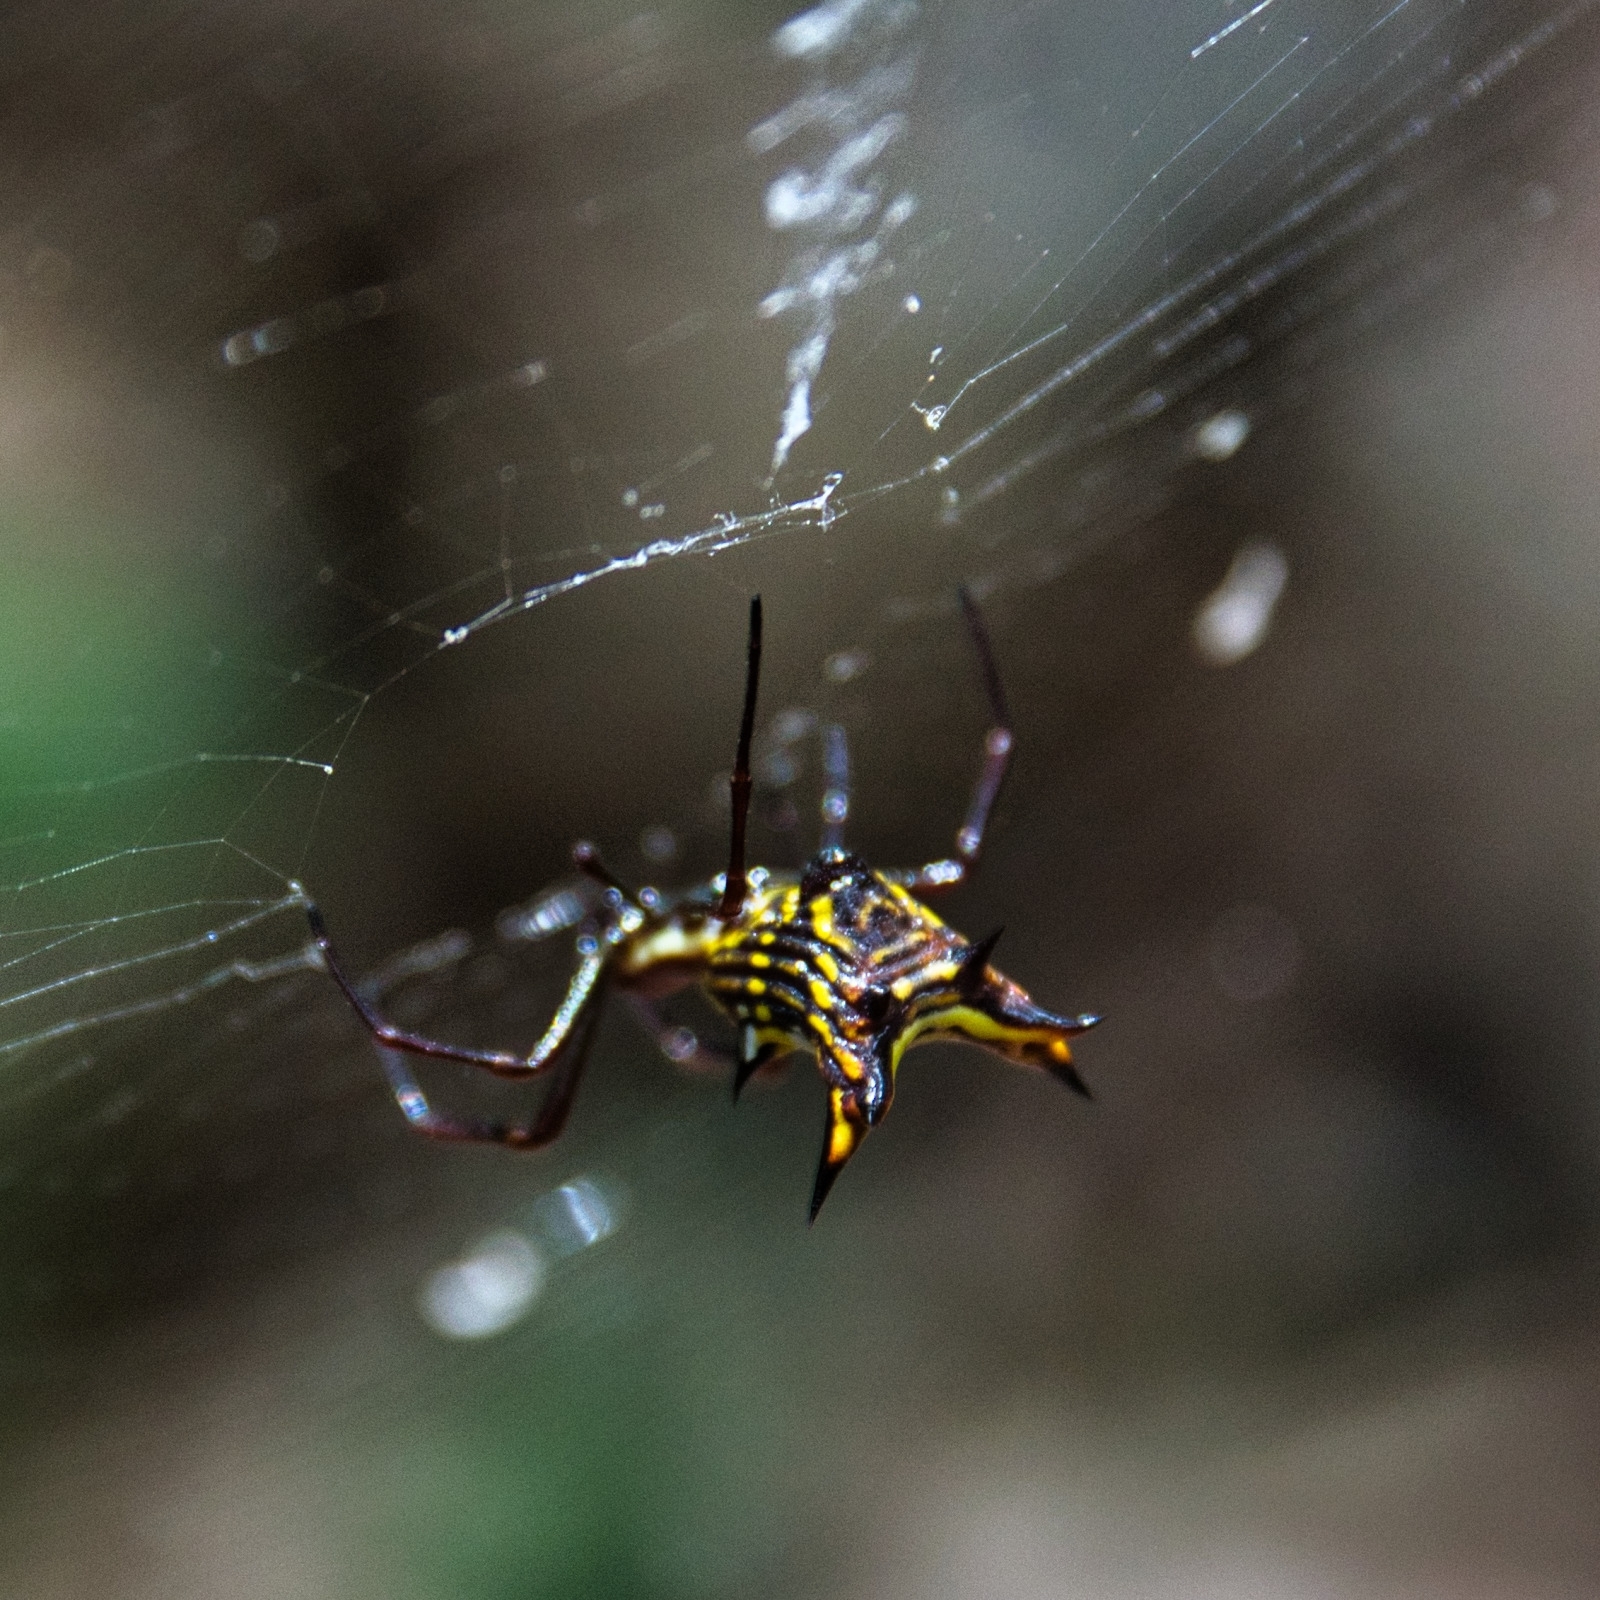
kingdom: Animalia
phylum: Arthropoda
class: Arachnida
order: Araneae
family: Araneidae
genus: Micrathena
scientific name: Micrathena fissispina
